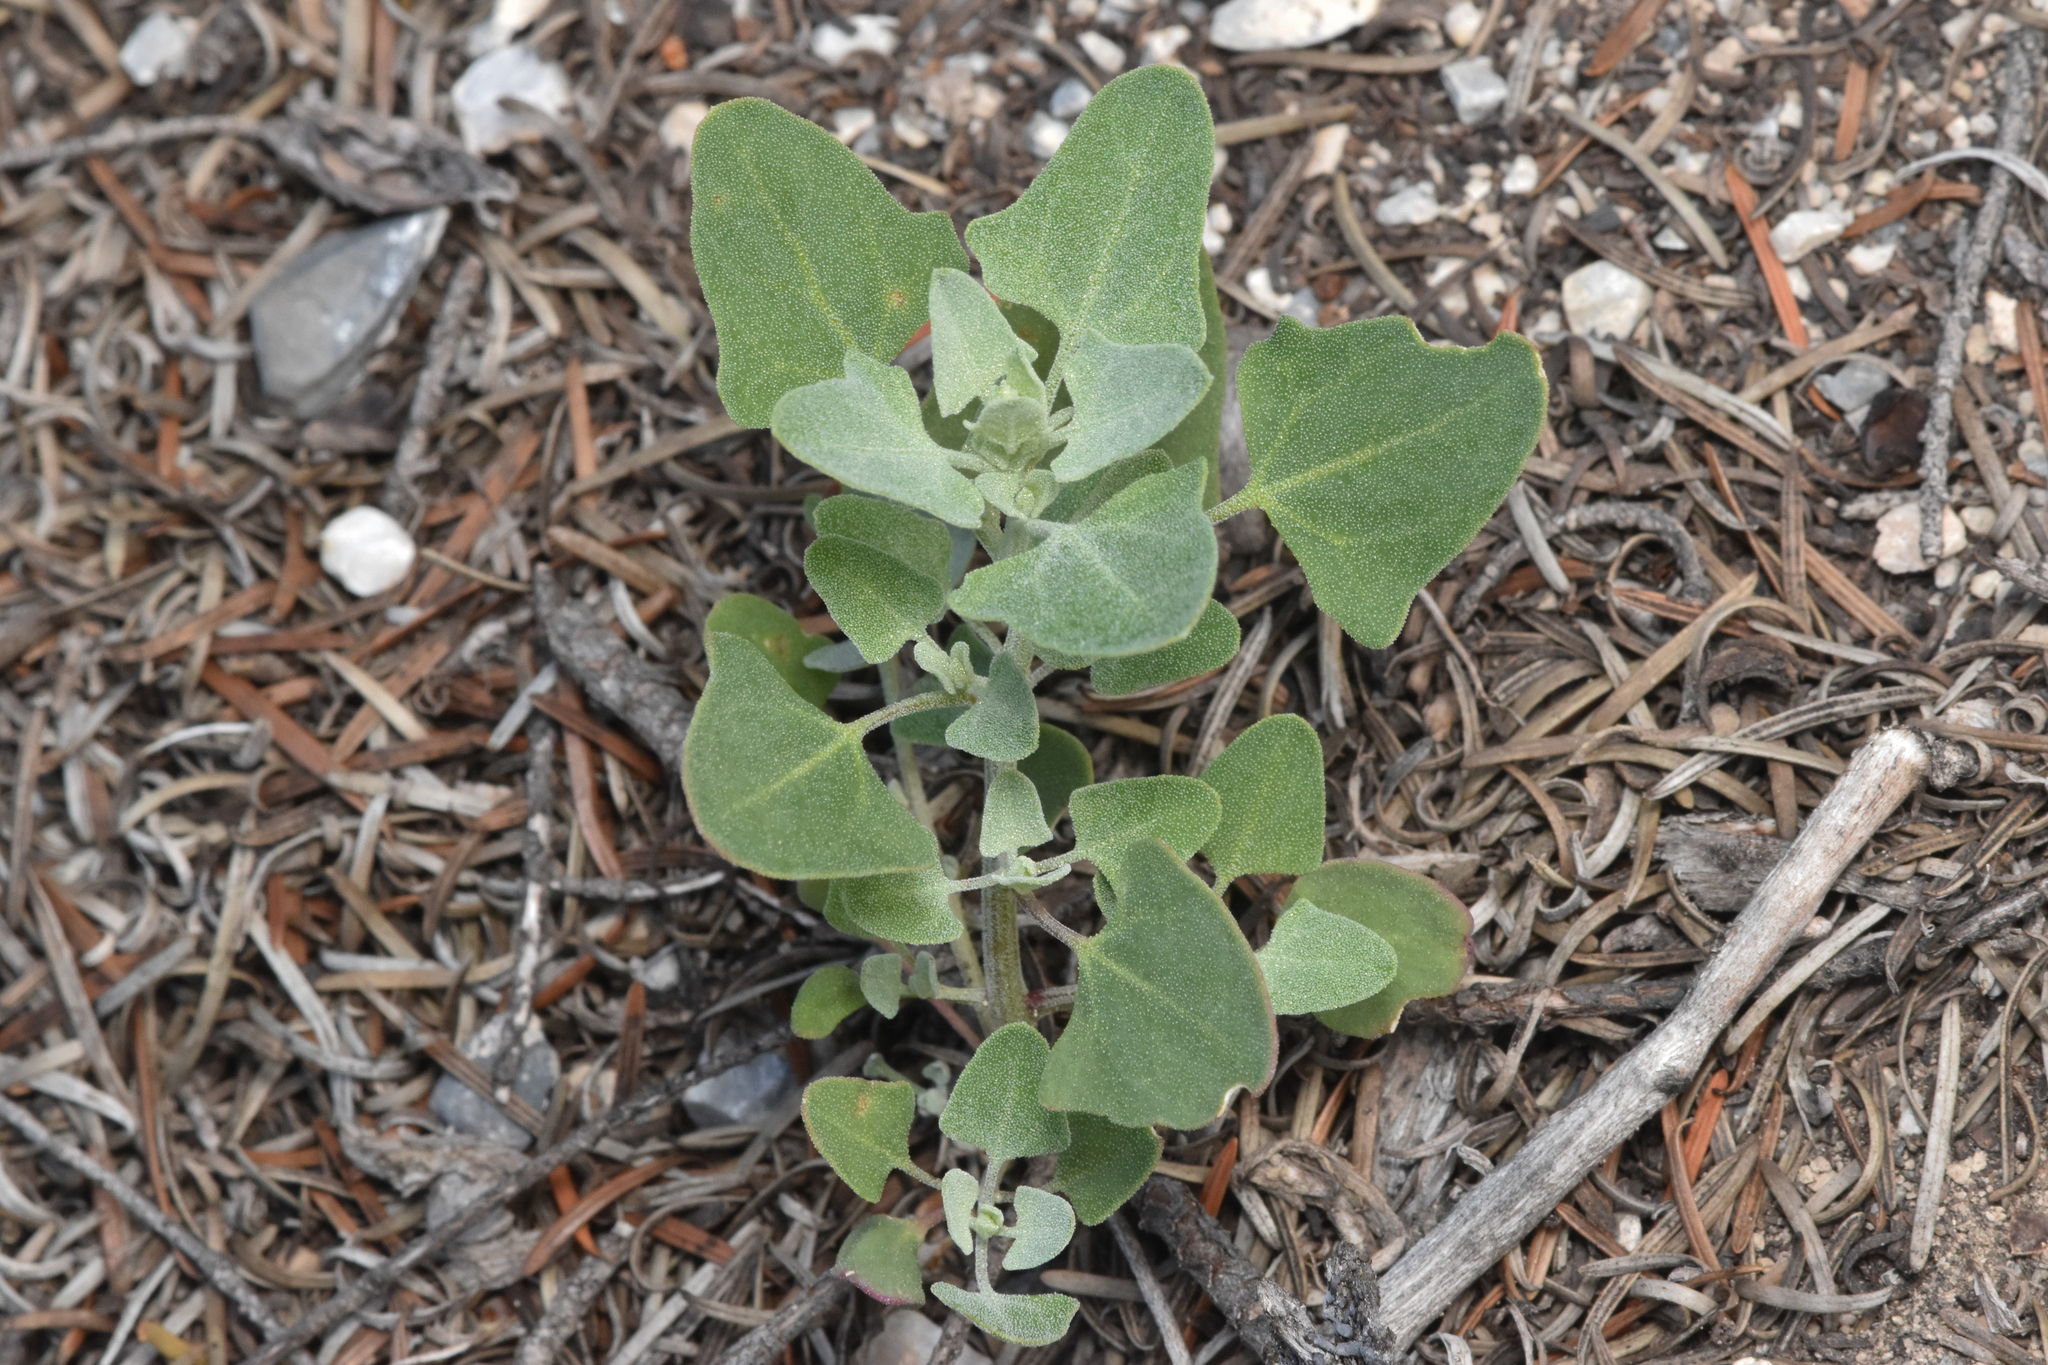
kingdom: Plantae
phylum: Tracheophyta
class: Magnoliopsida
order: Caryophyllales
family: Amaranthaceae
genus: Chenopodium
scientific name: Chenopodium album
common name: Fat-hen
